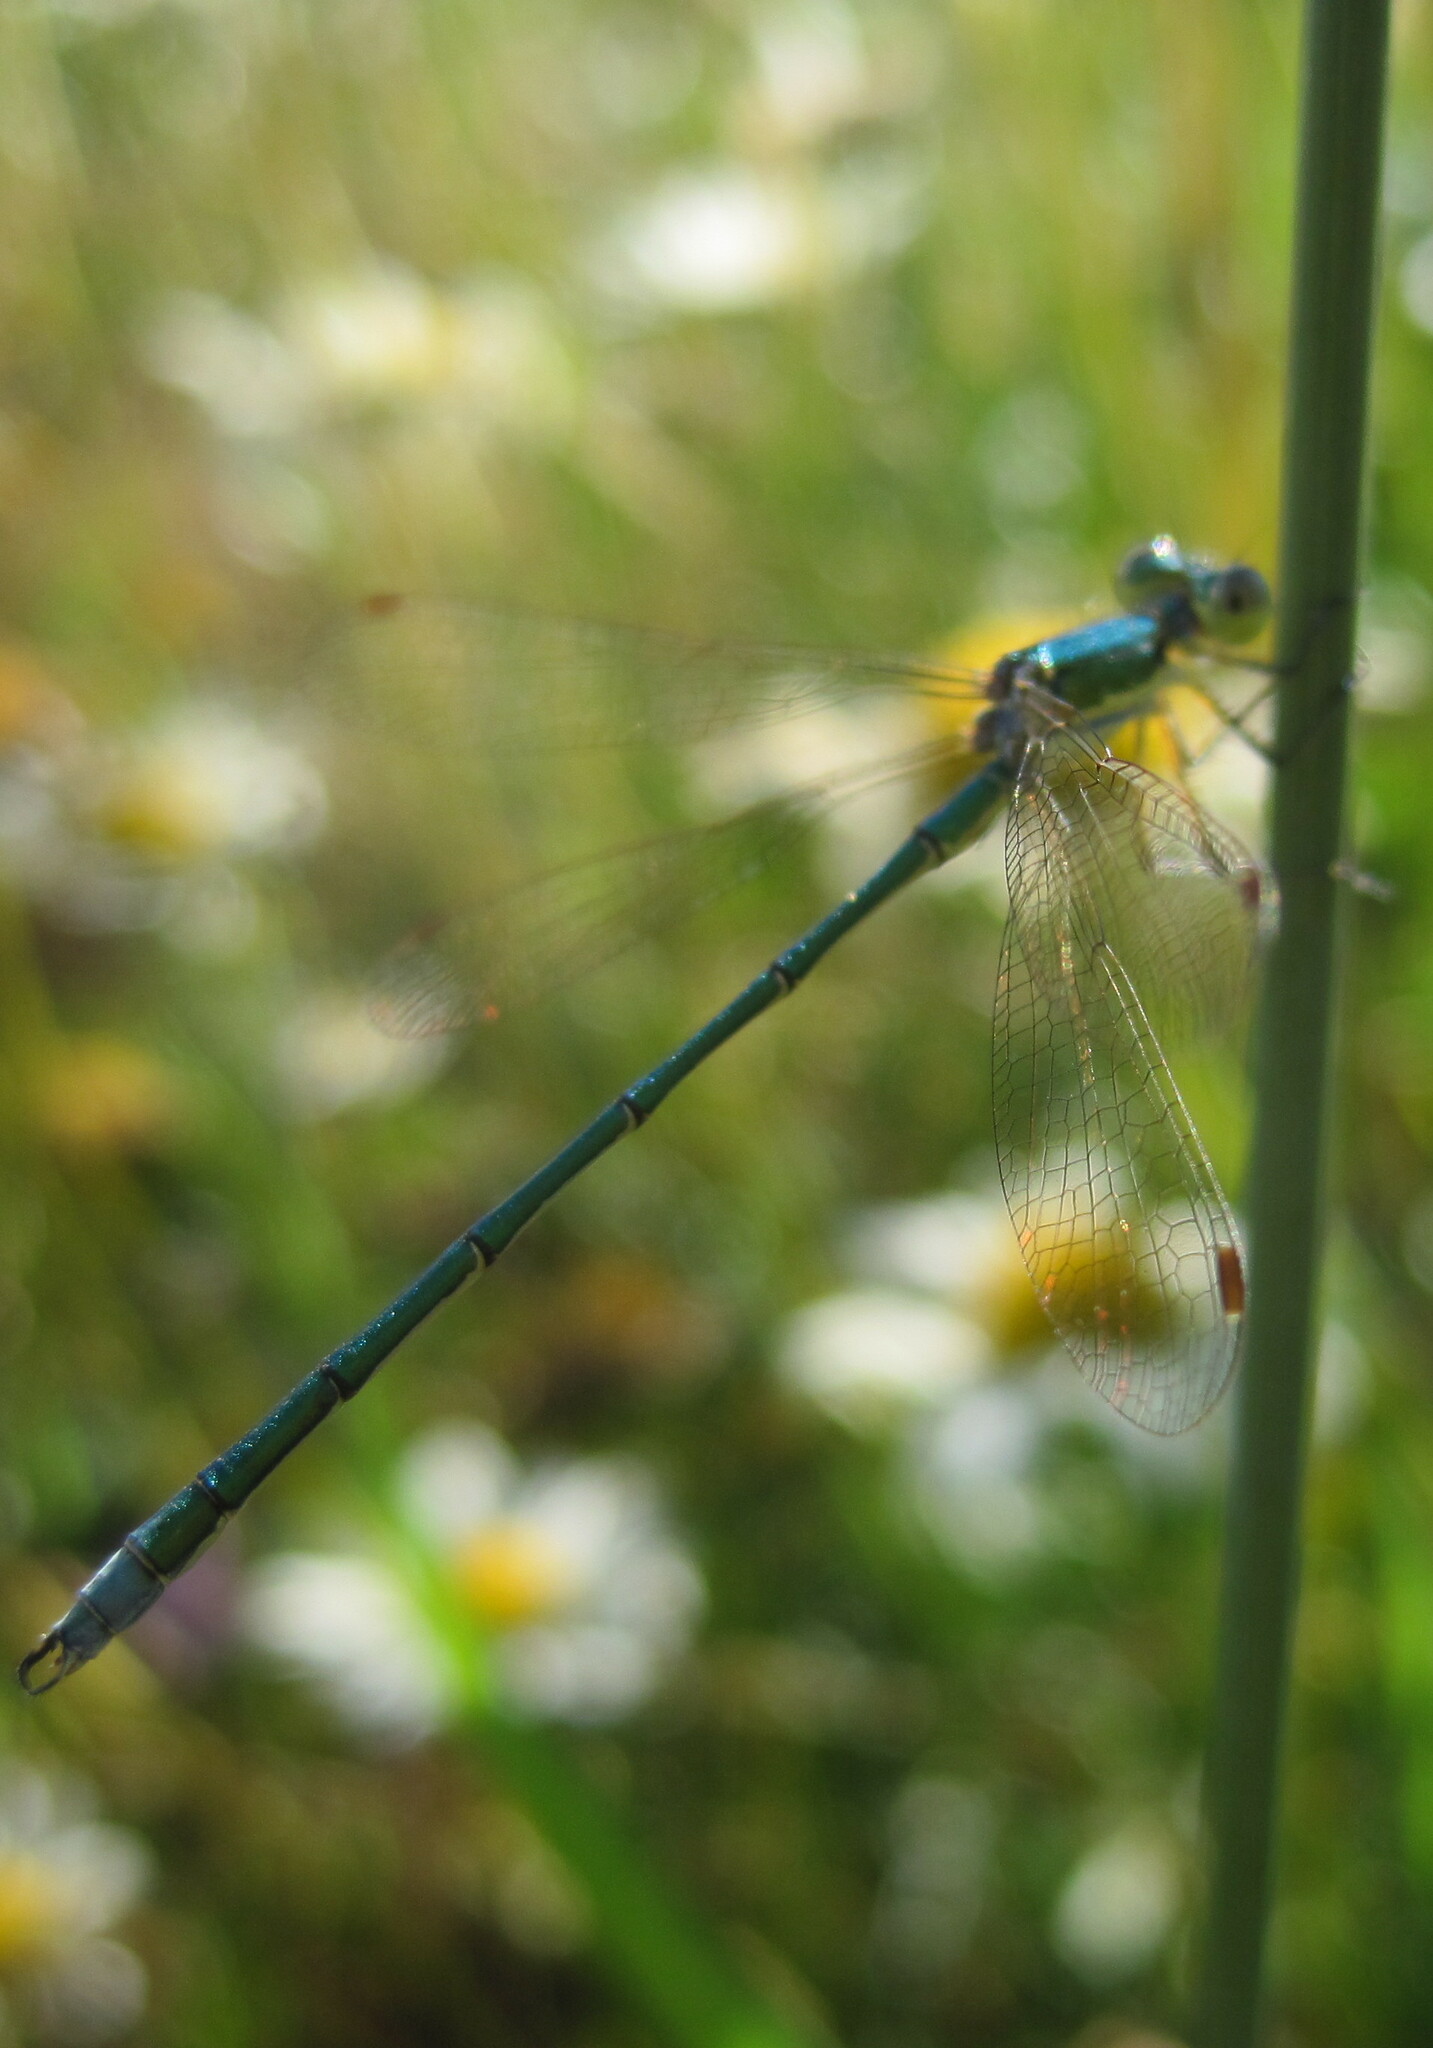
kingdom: Animalia
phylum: Arthropoda
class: Insecta
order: Odonata
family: Lestidae
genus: Lestes
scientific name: Lestes virens
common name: Small emerald spreadwing
